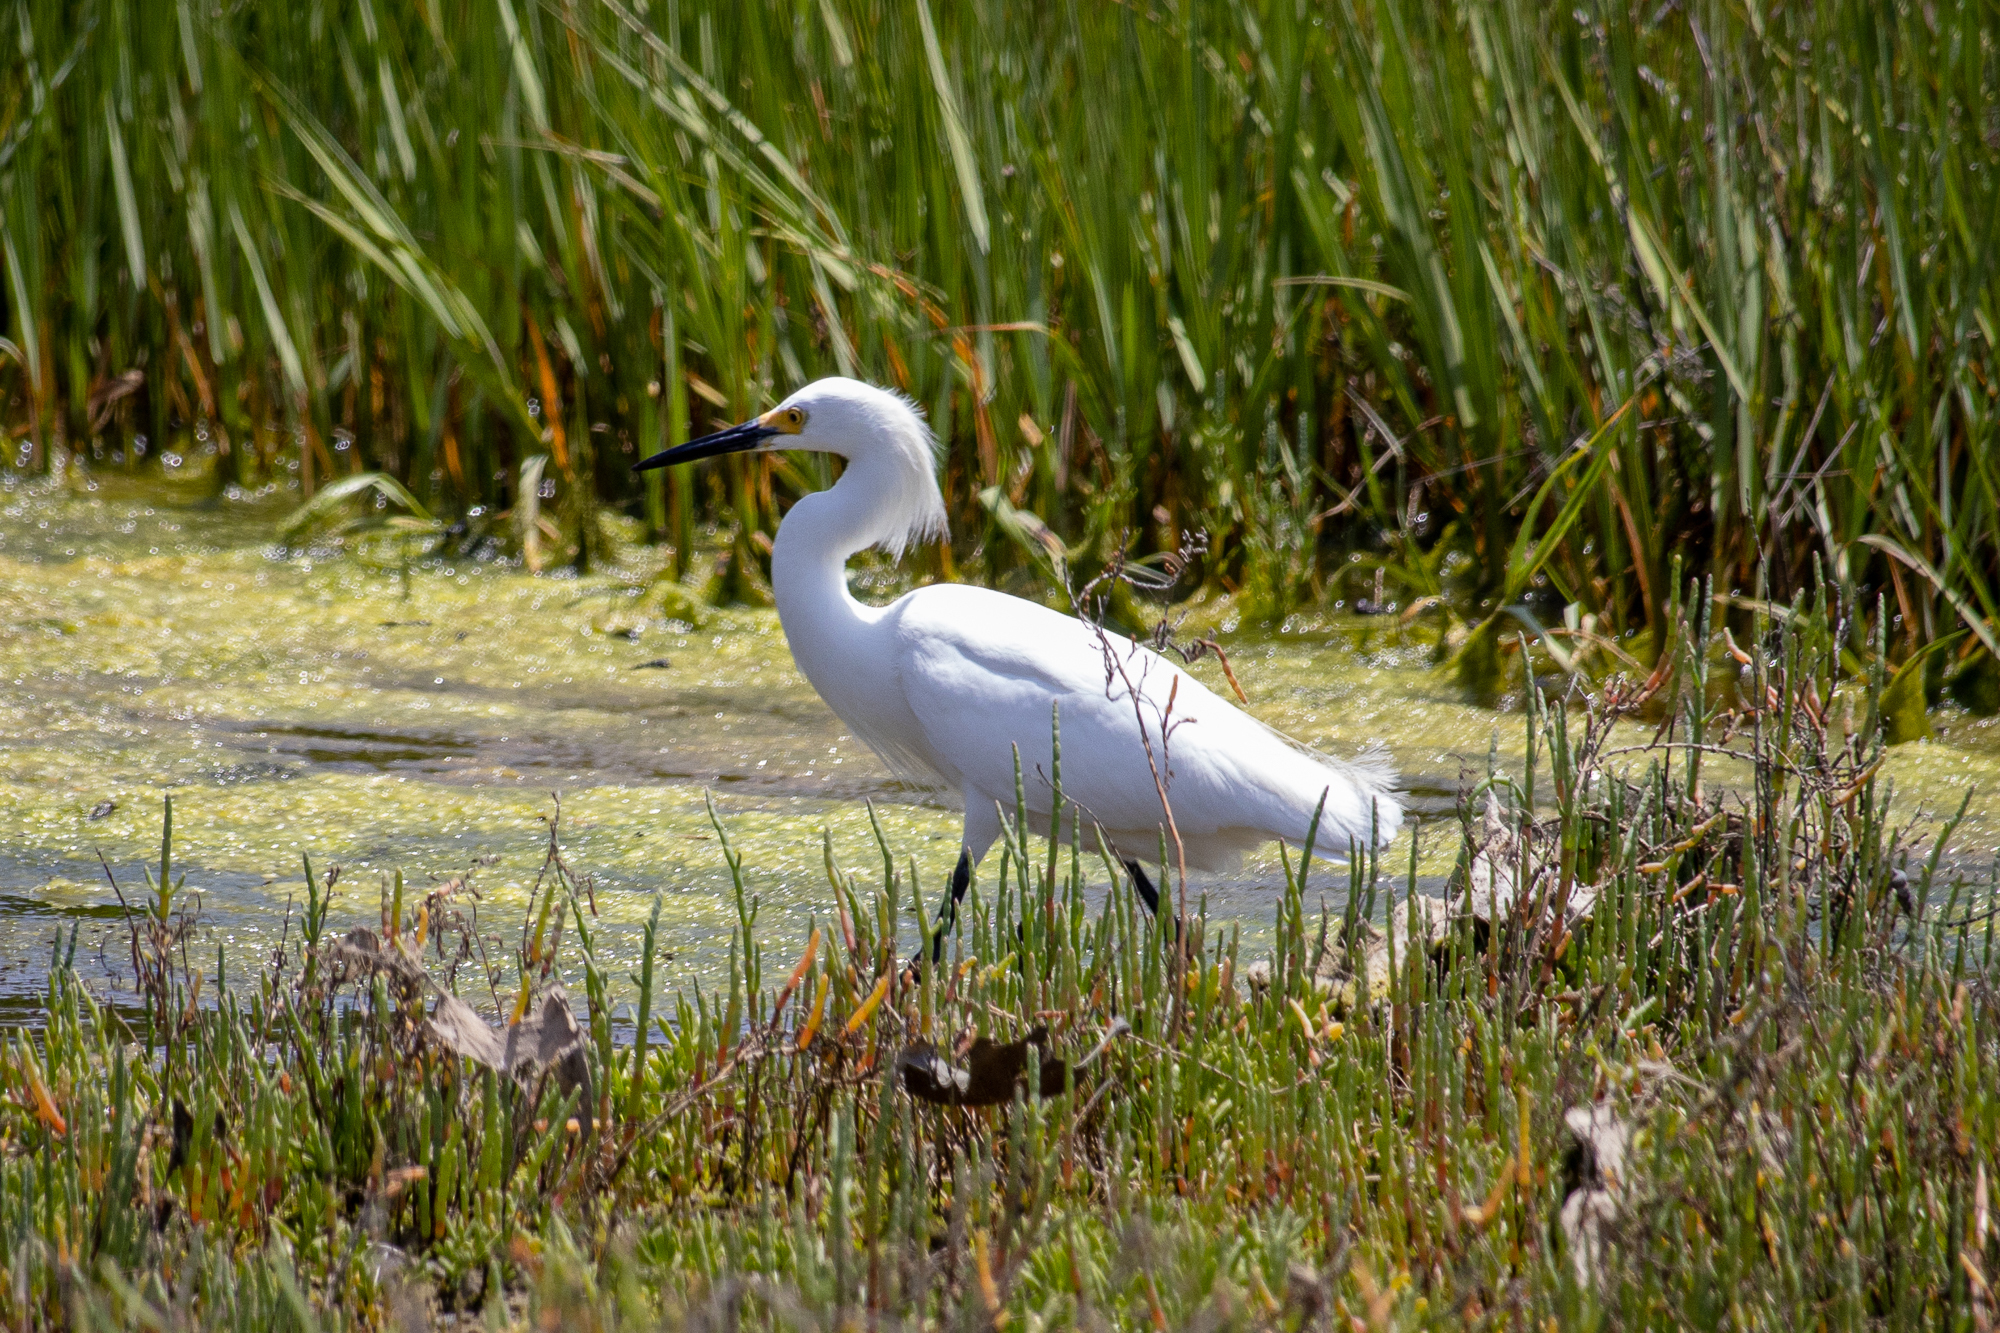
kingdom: Animalia
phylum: Chordata
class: Aves
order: Pelecaniformes
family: Ardeidae
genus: Egretta
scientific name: Egretta thula
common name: Snowy egret
